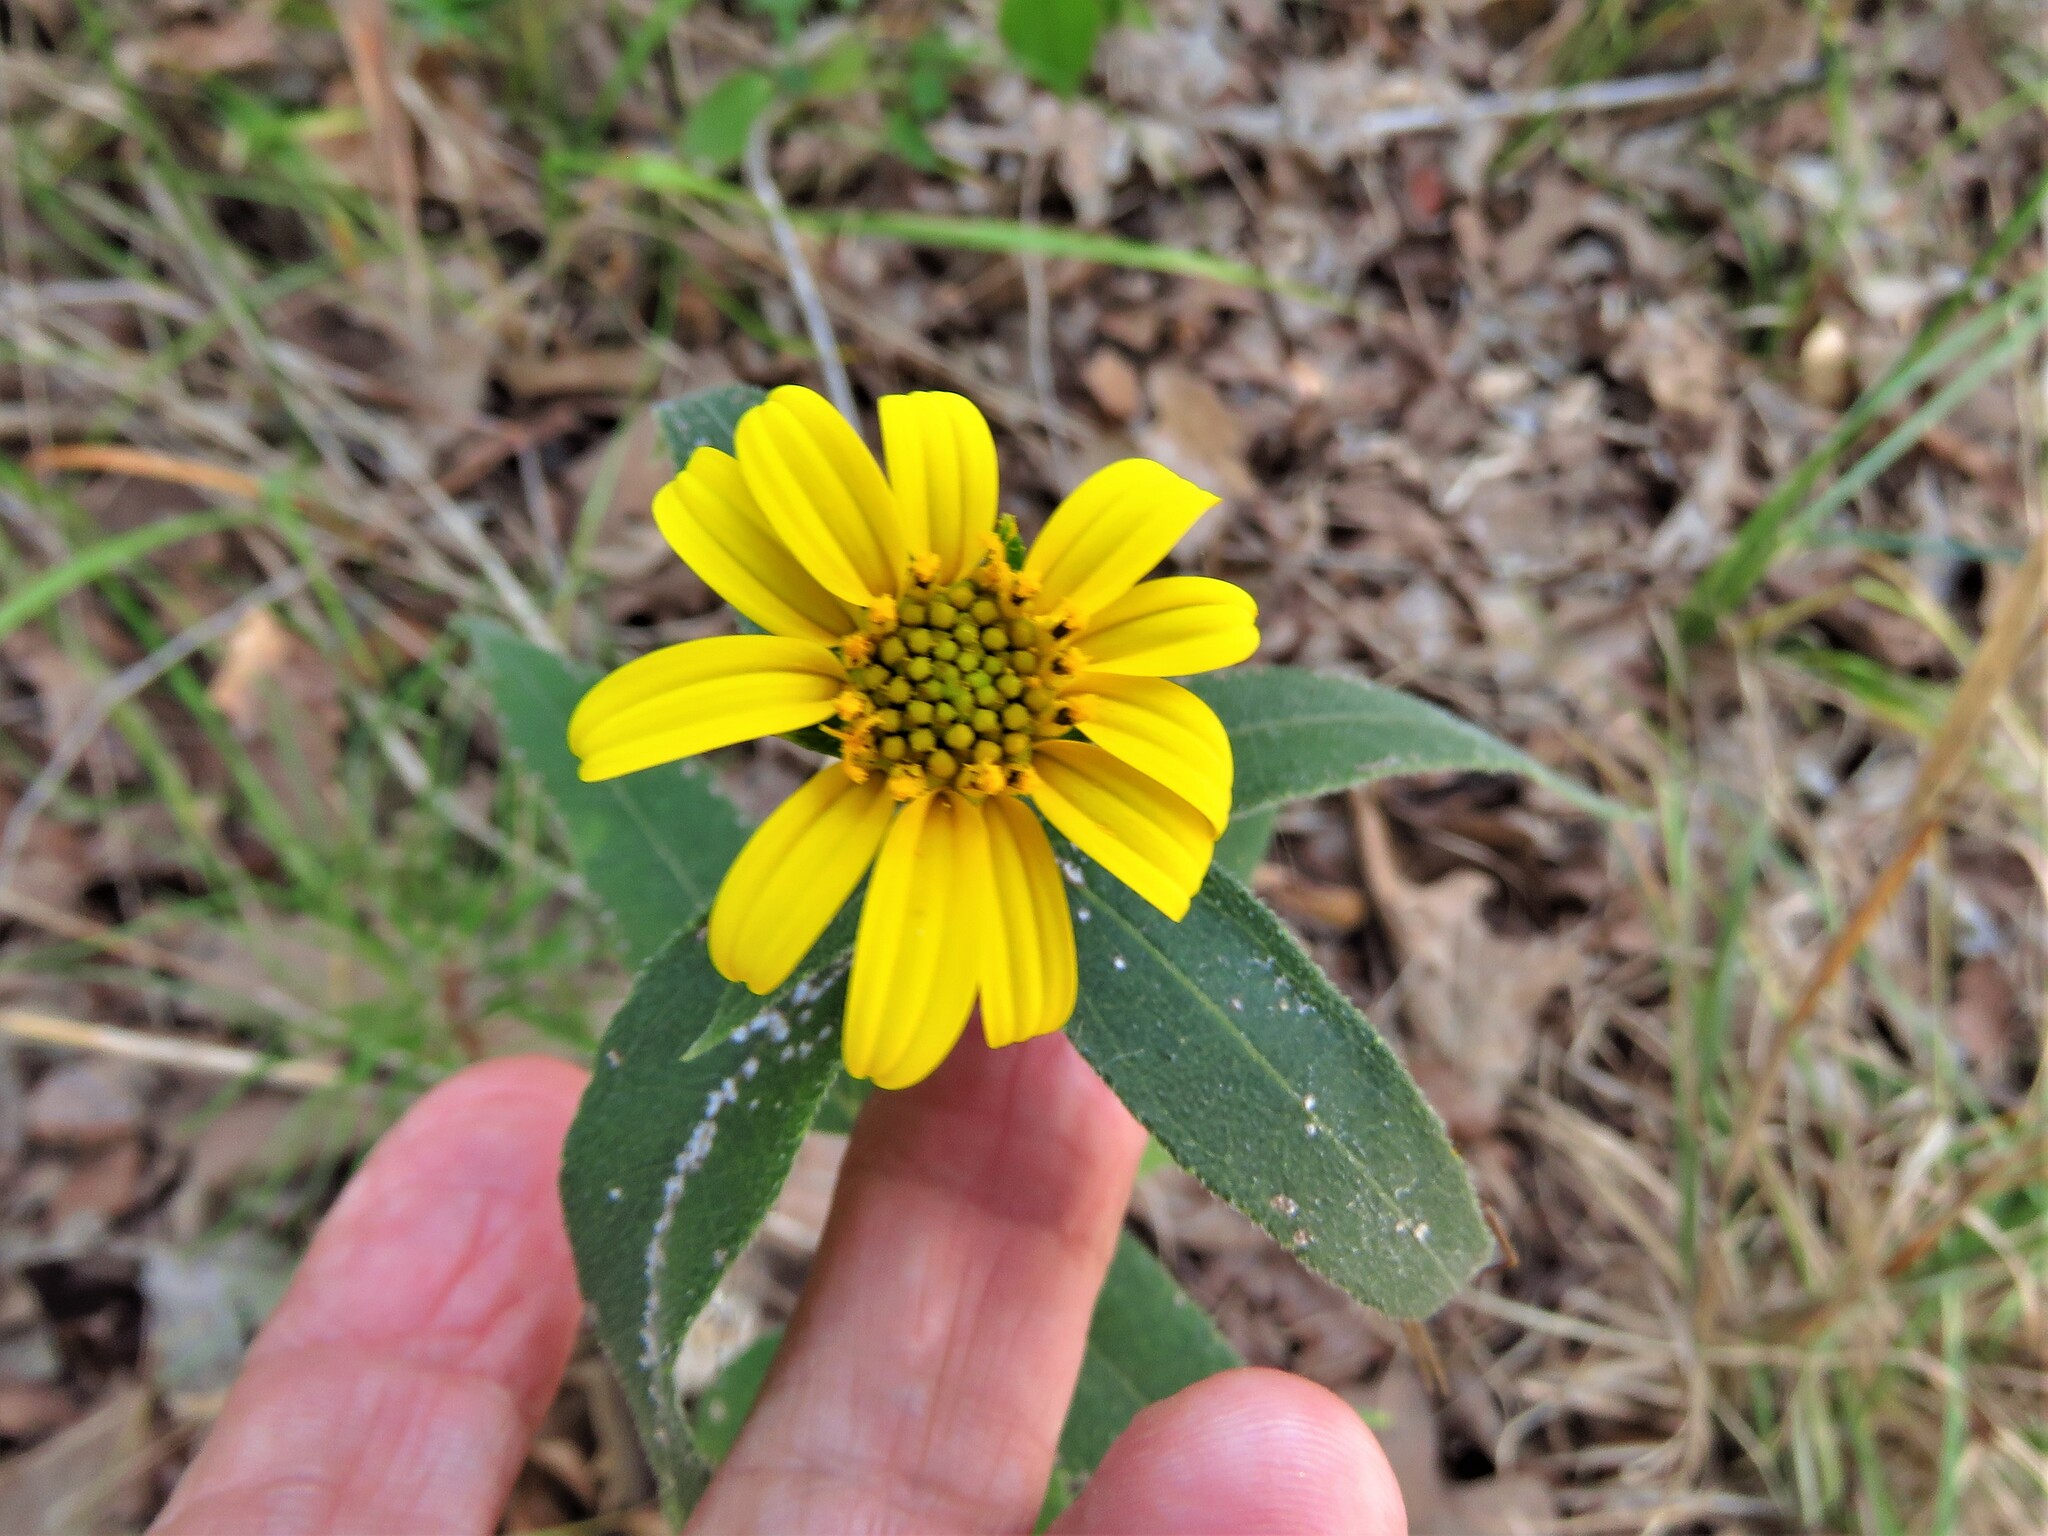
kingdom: Plantae
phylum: Tracheophyta
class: Magnoliopsida
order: Asterales
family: Asteraceae
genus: Helianthus
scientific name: Helianthus hirsutus
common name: Hairy sunflower
